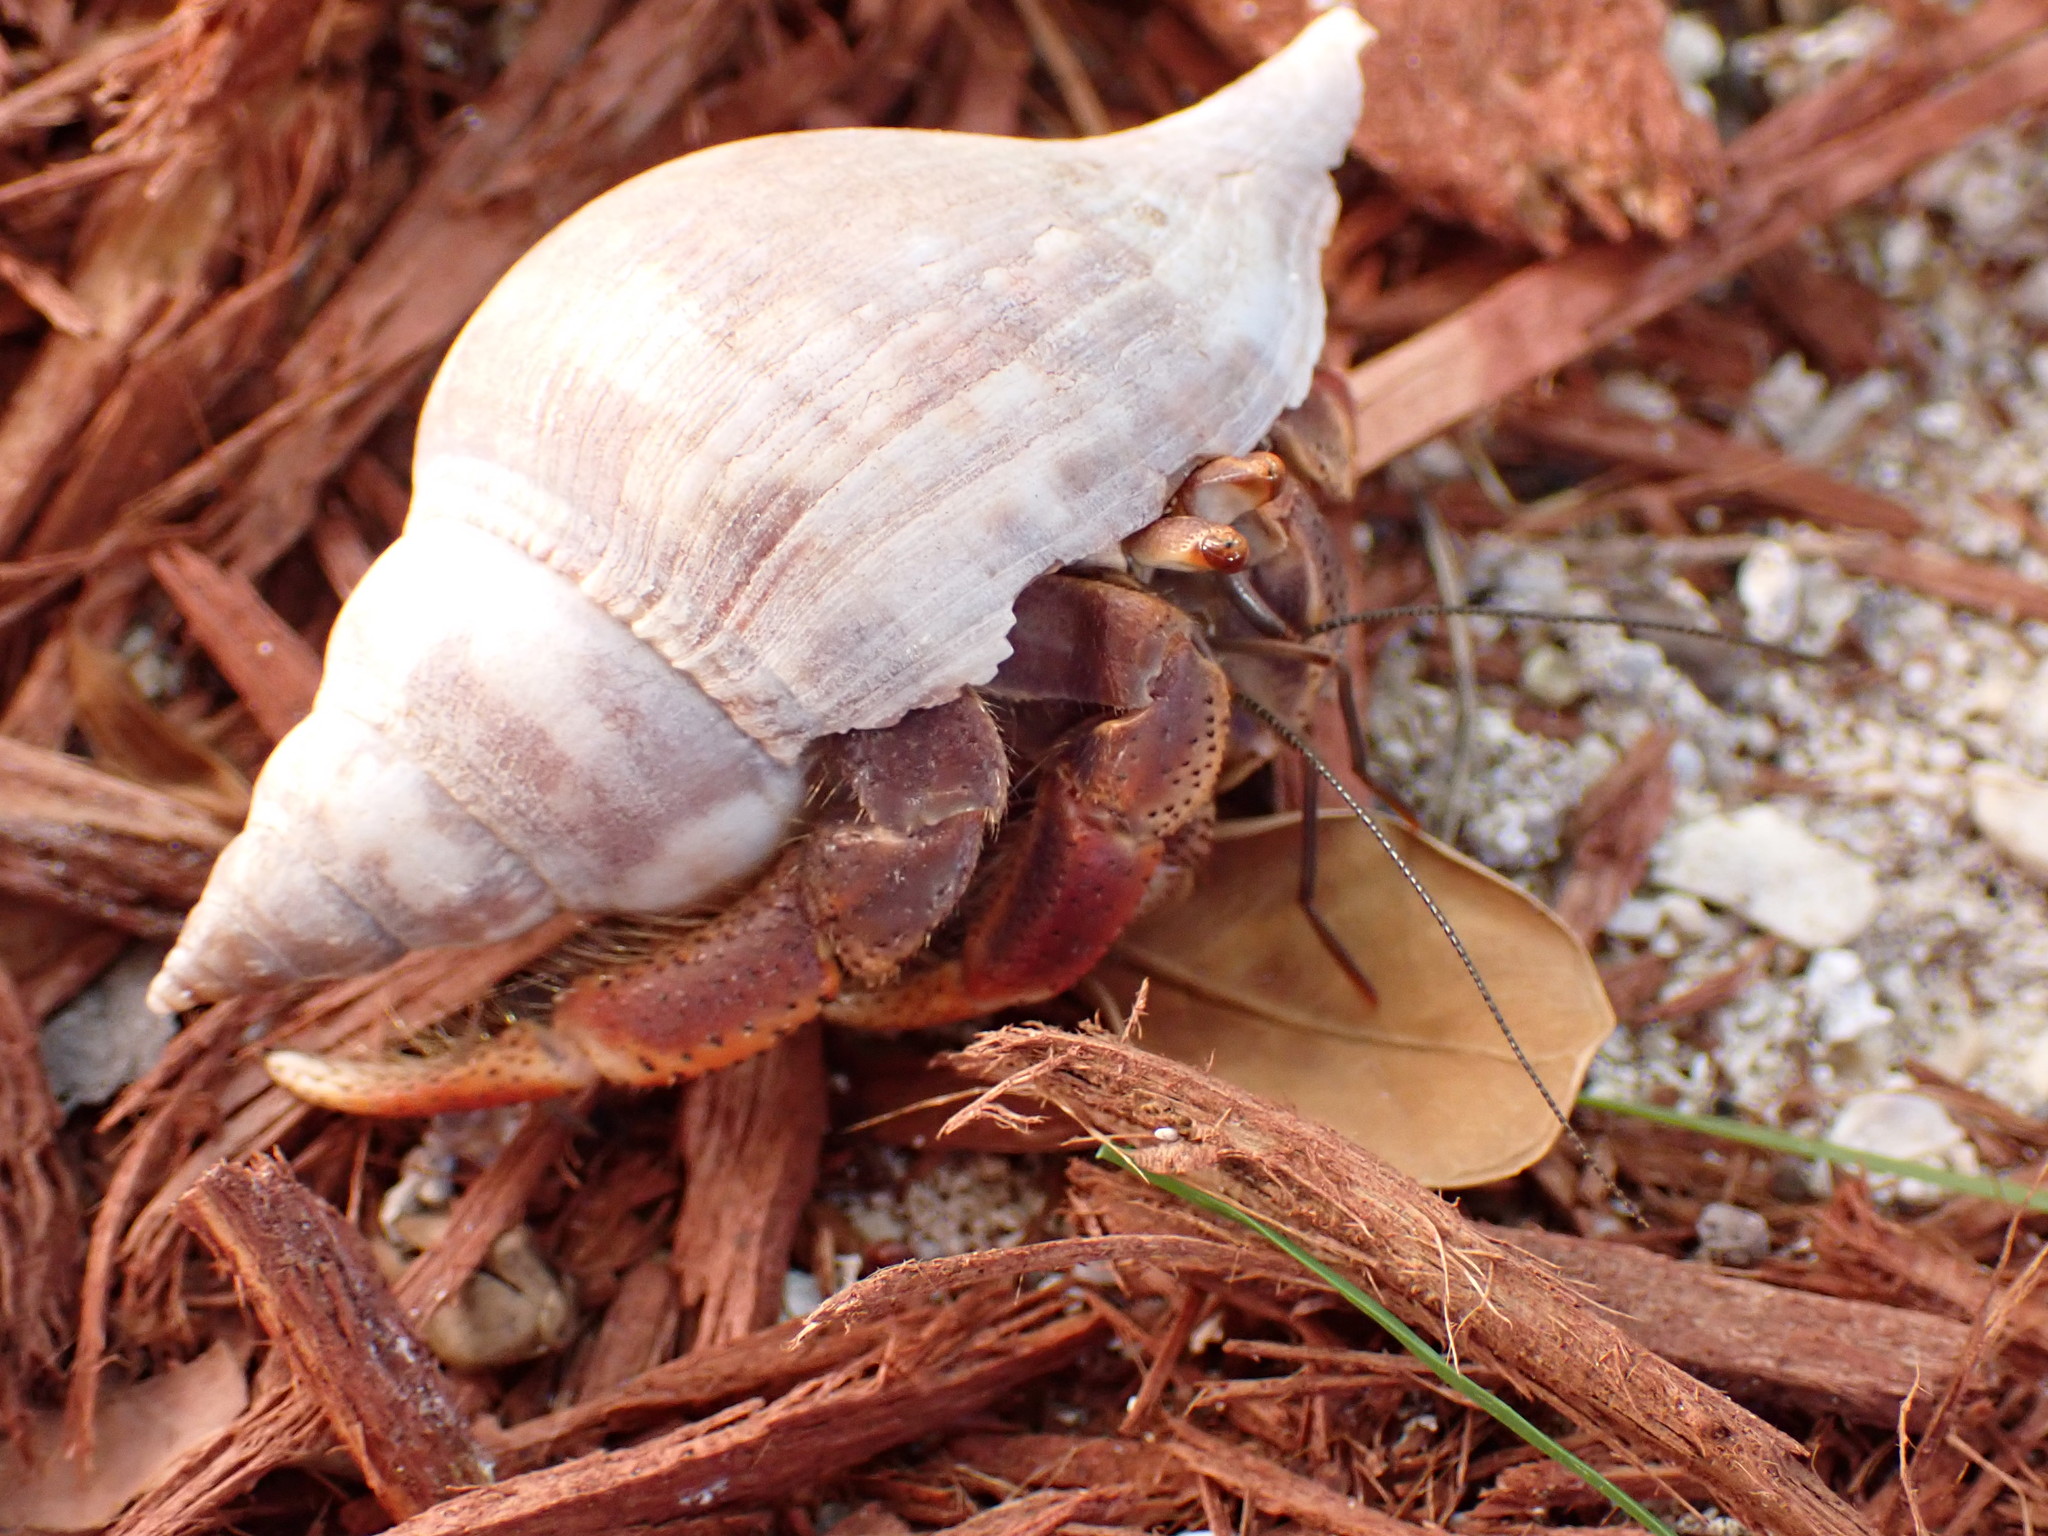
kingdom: Animalia
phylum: Arthropoda
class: Malacostraca
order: Decapoda
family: Coenobitidae
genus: Coenobita
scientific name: Coenobita clypeatus
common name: Caribbean hermit crab
